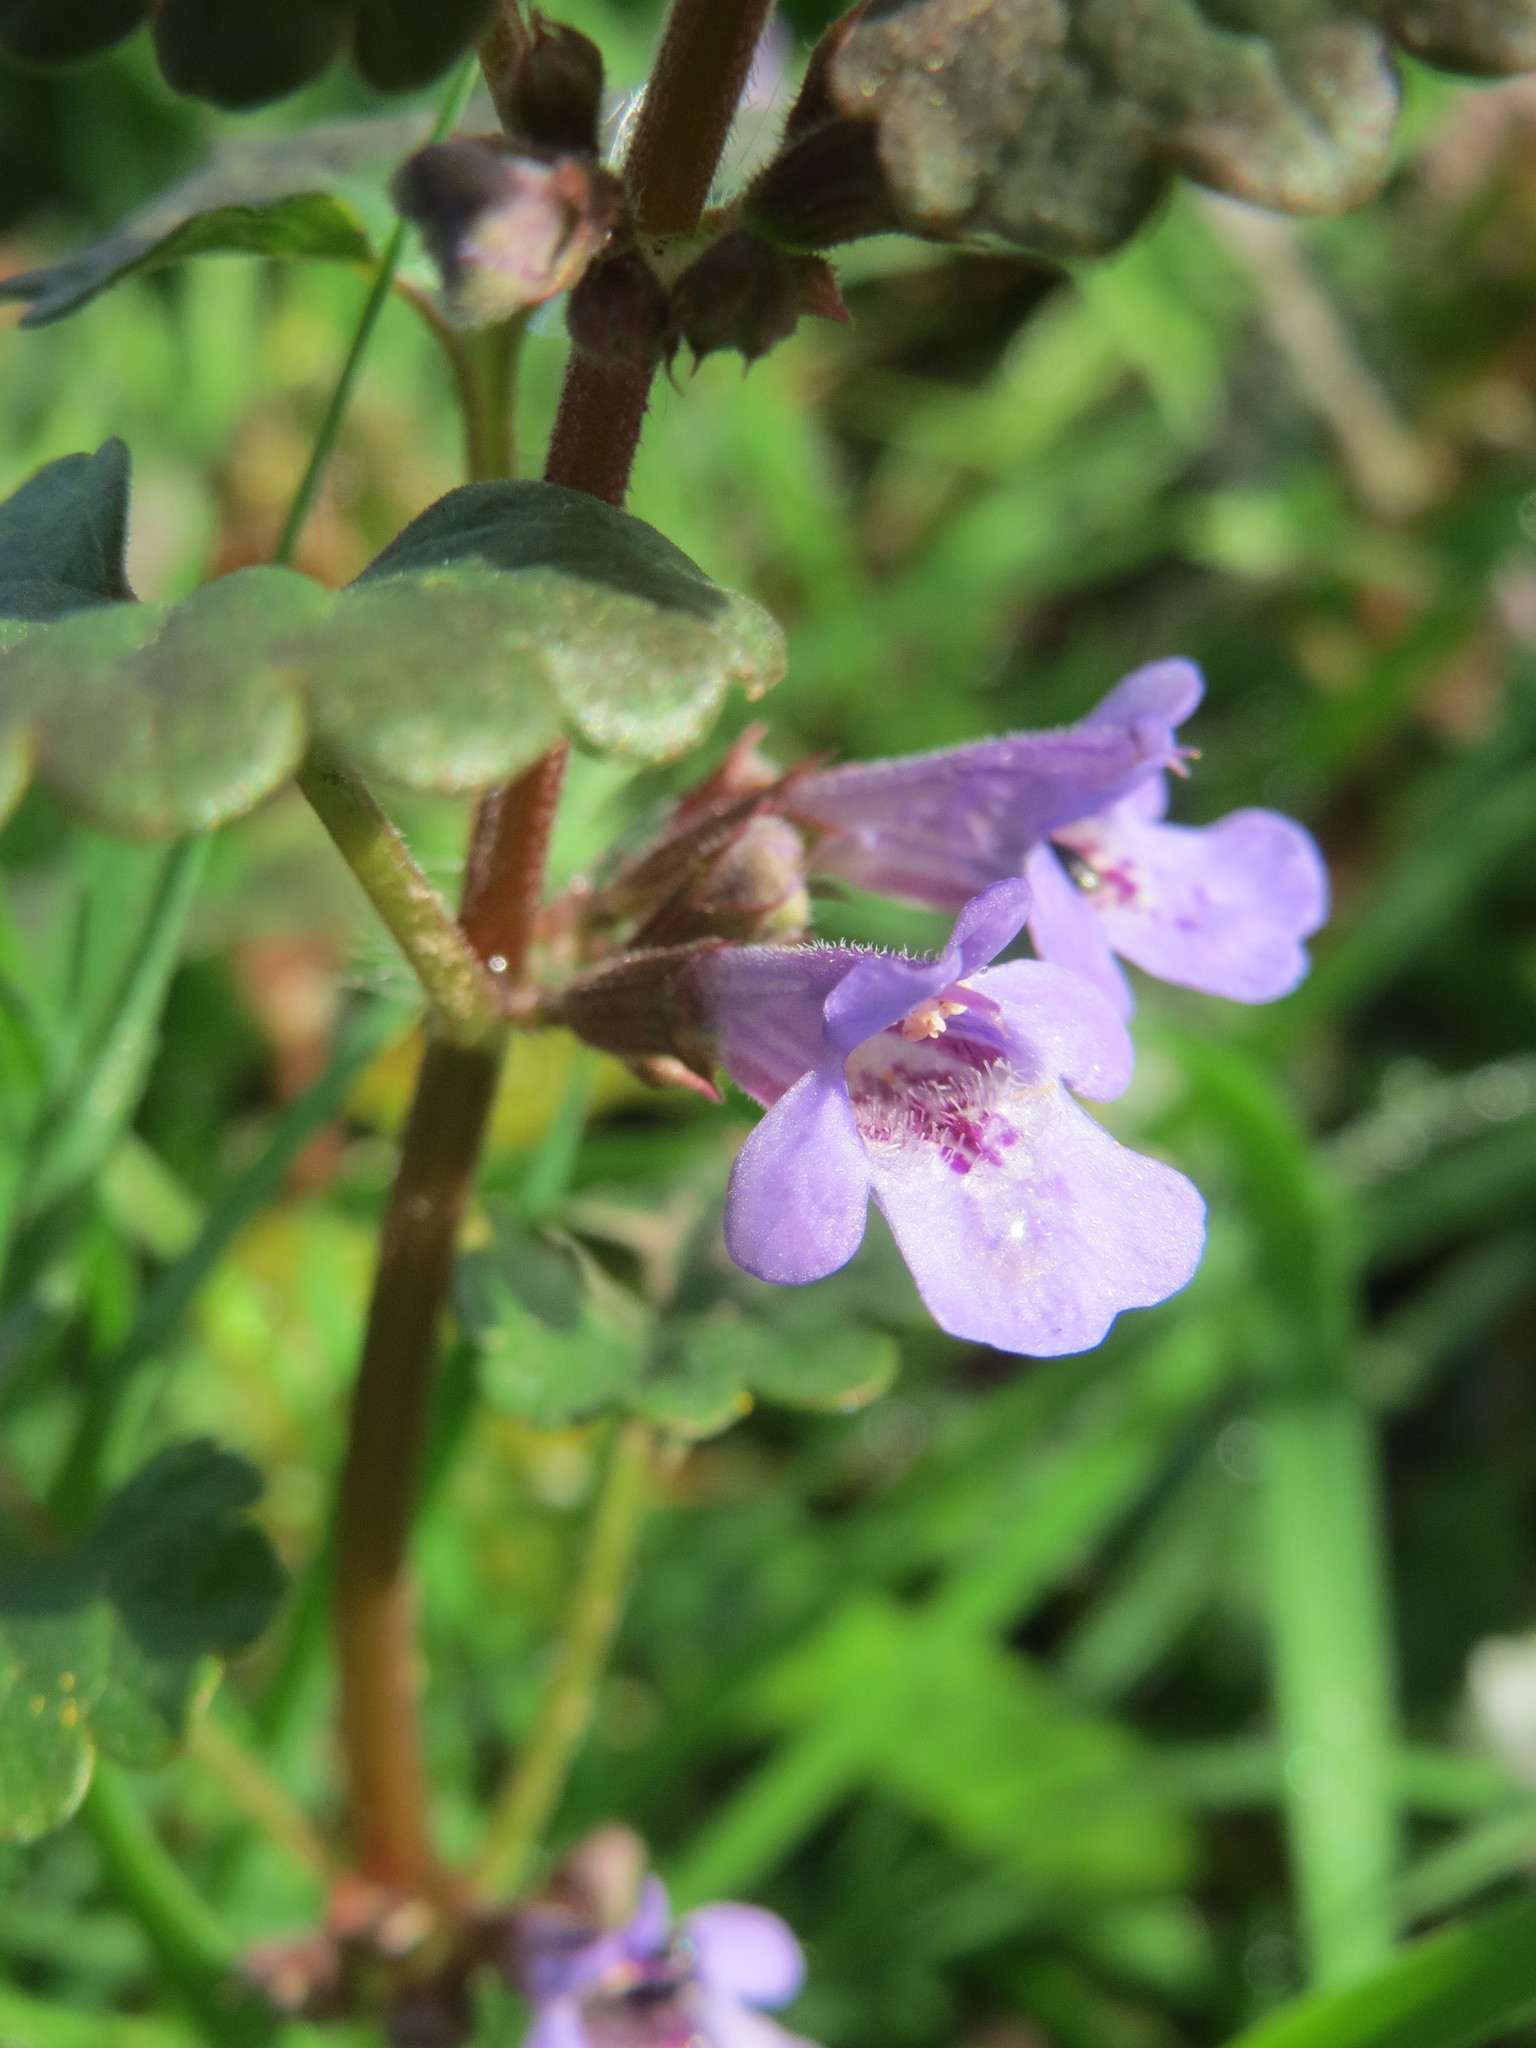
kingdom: Plantae
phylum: Tracheophyta
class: Magnoliopsida
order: Lamiales
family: Lamiaceae
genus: Glechoma
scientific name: Glechoma hederacea
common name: Ground ivy
